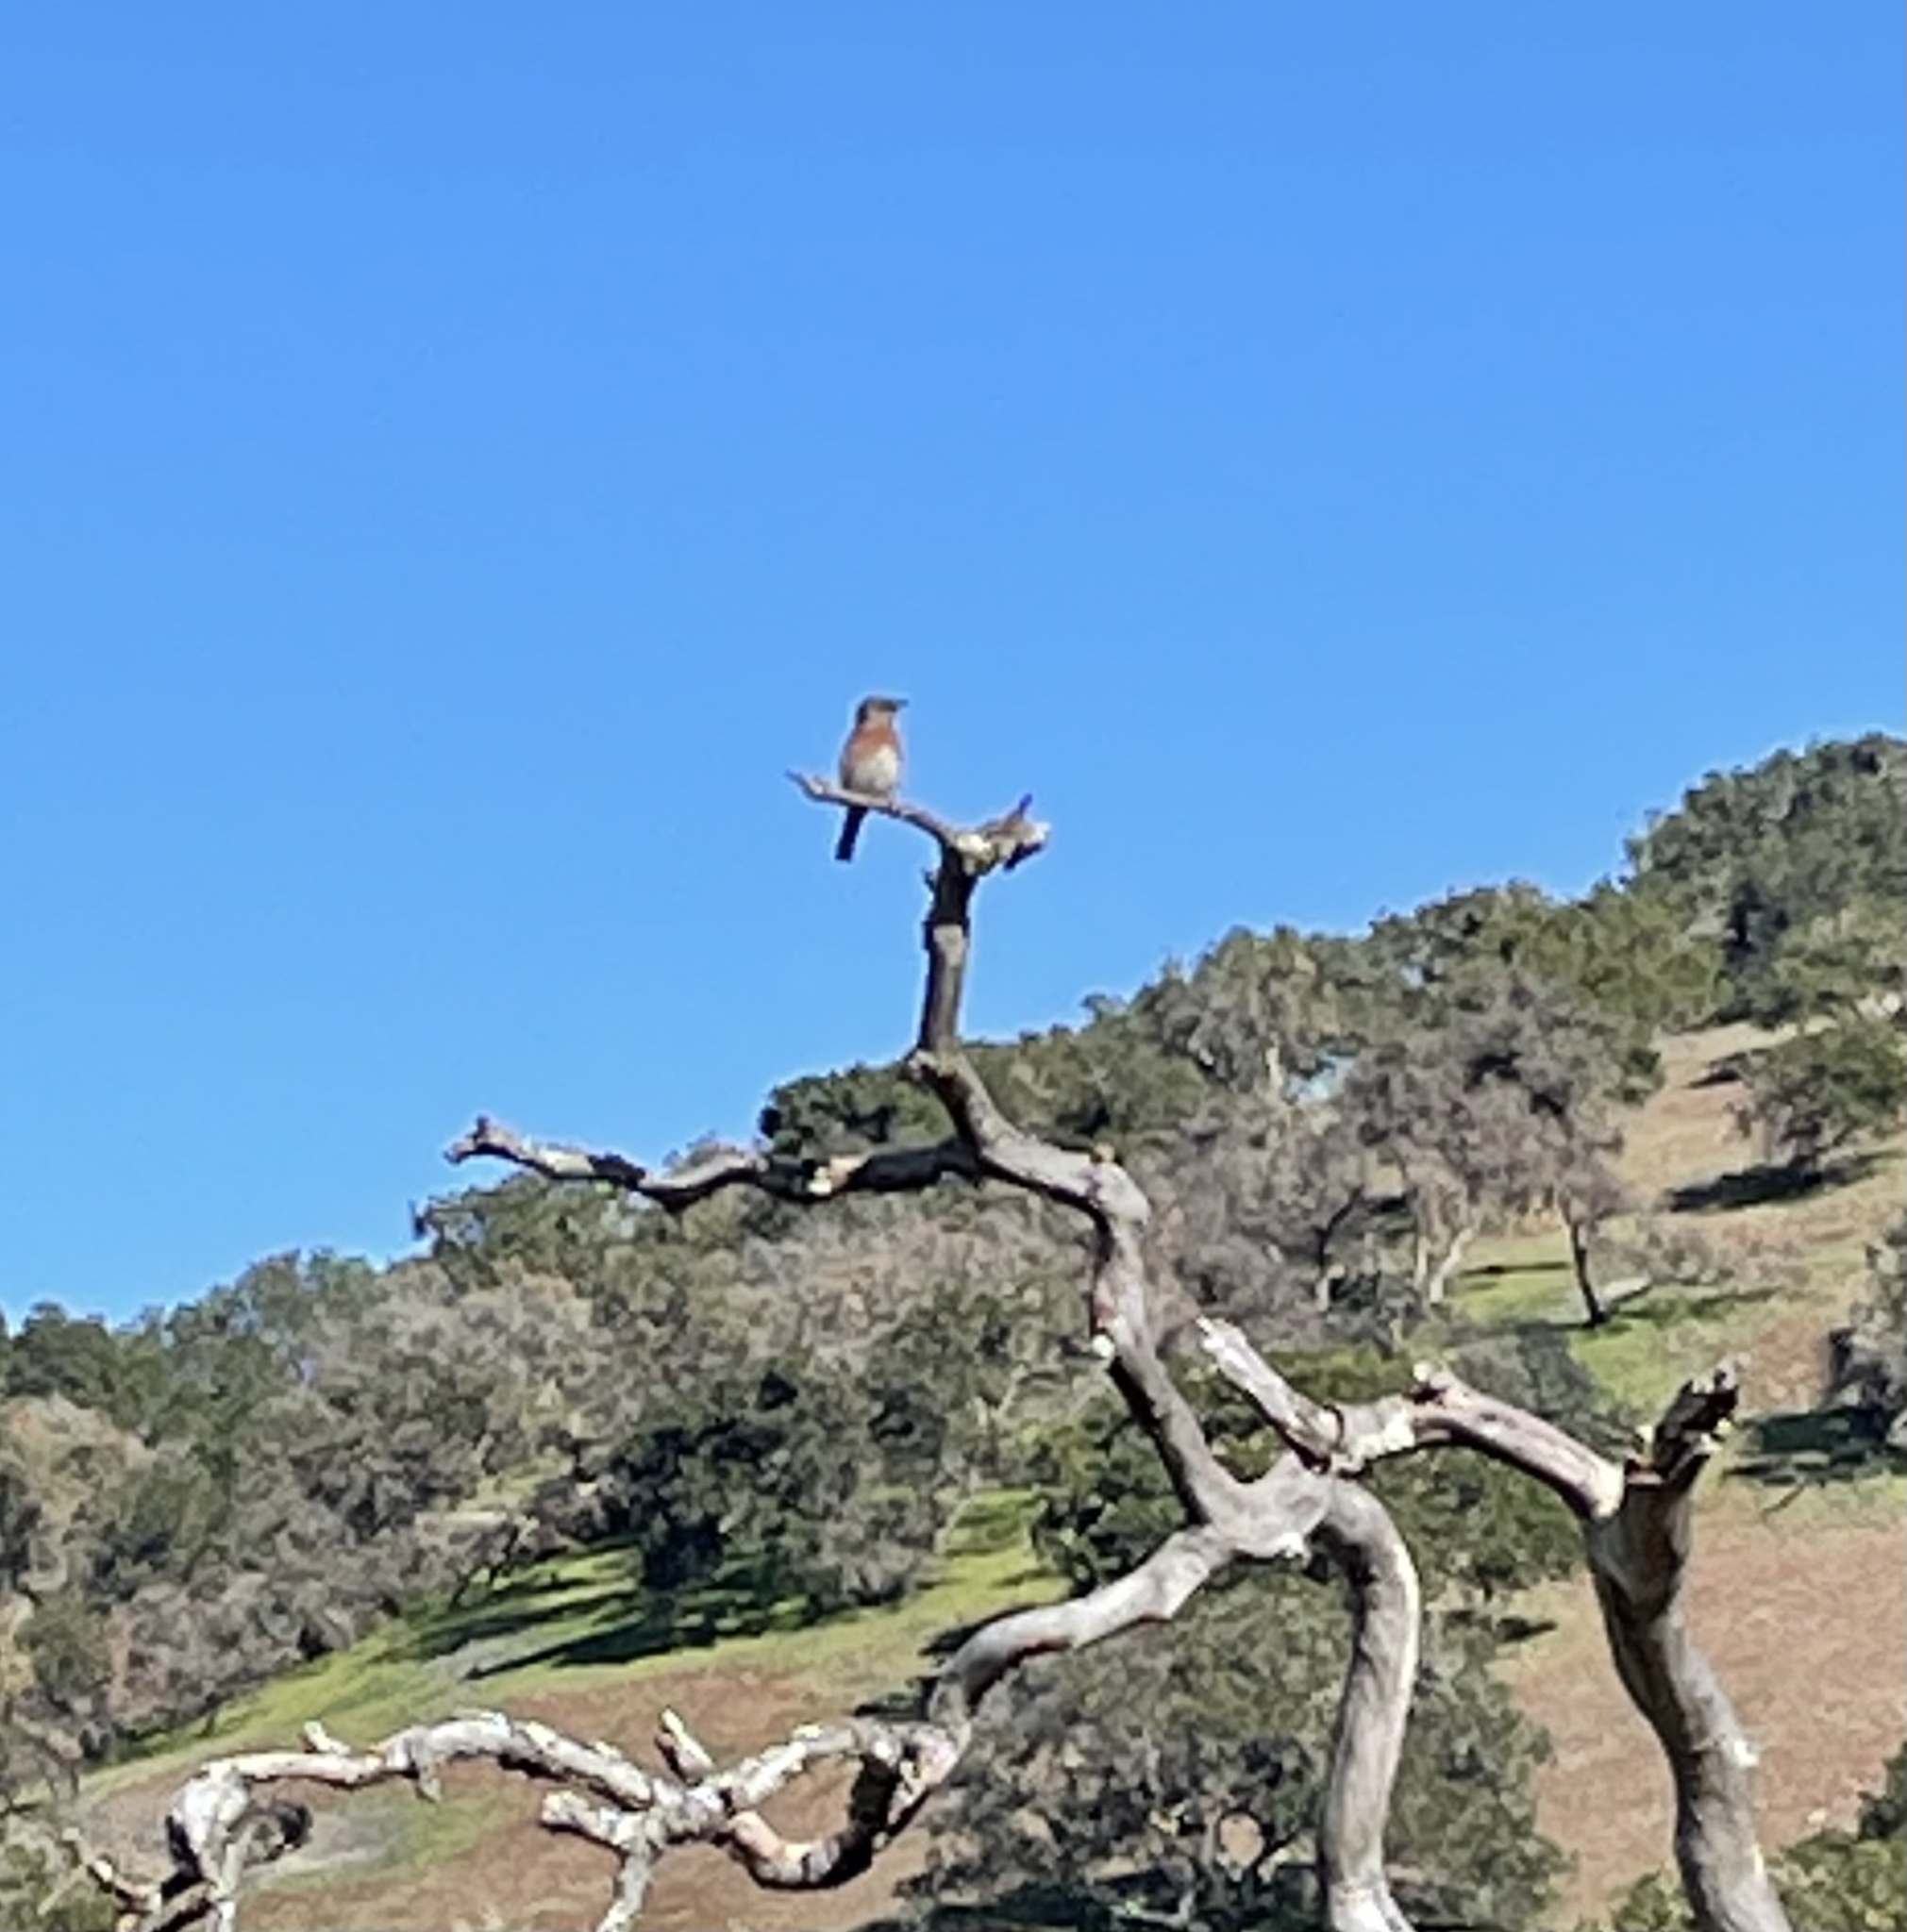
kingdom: Animalia
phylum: Chordata
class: Aves
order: Passeriformes
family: Turdidae
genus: Sialia
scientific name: Sialia mexicana
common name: Western bluebird
